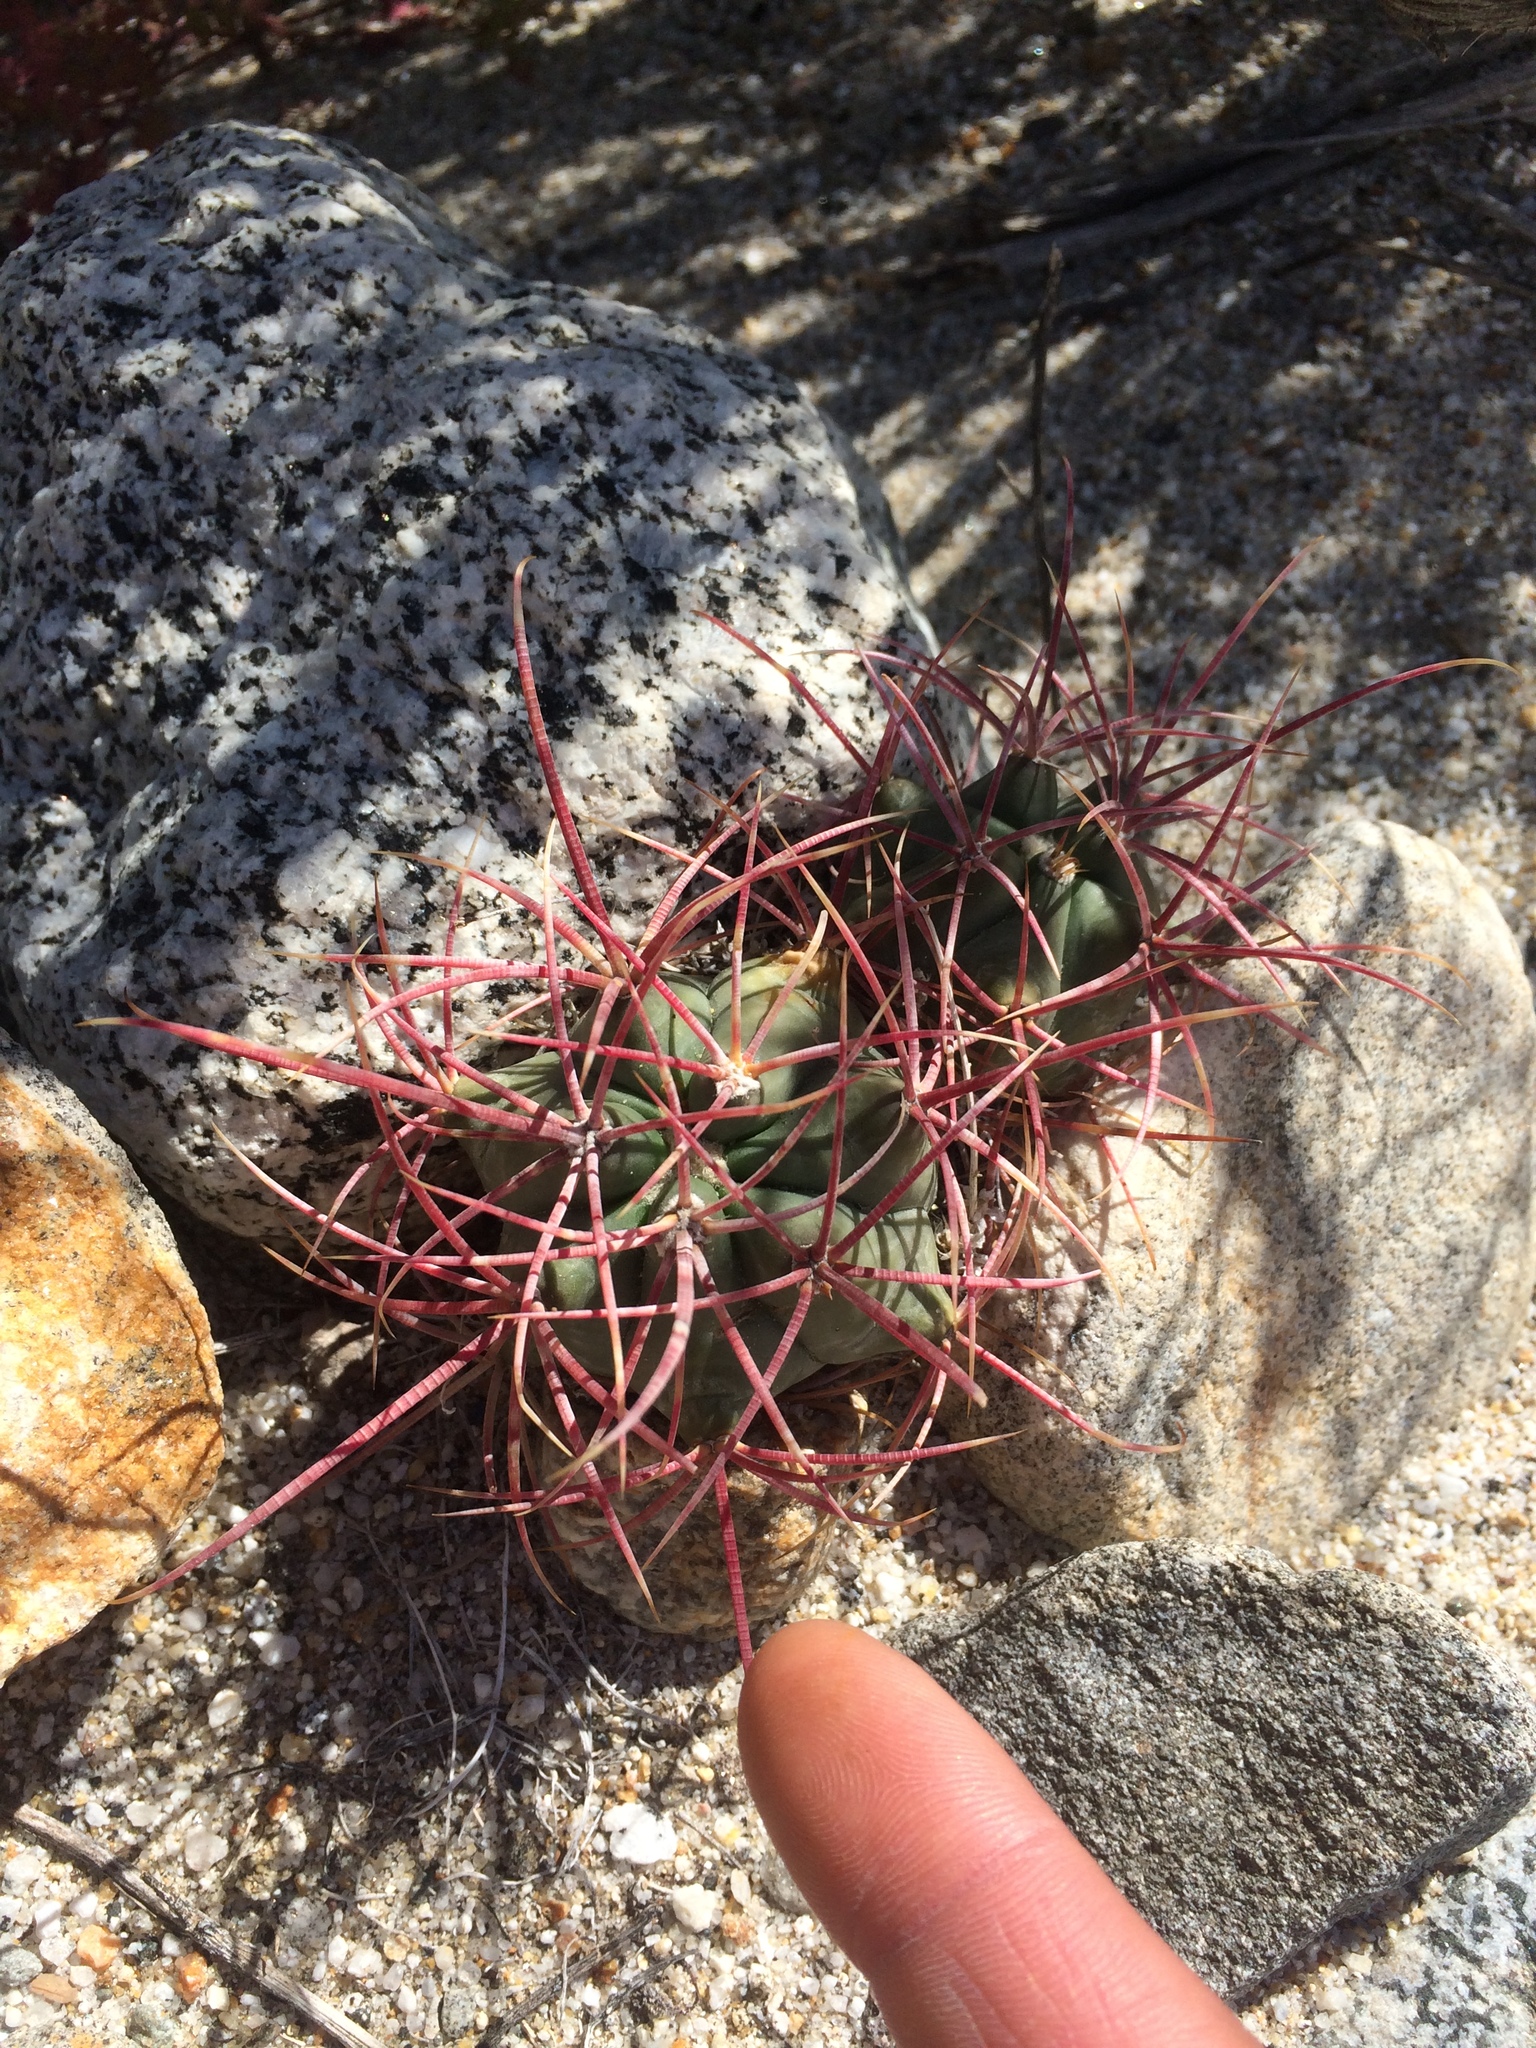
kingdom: Plantae
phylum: Tracheophyta
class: Magnoliopsida
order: Caryophyllales
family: Cactaceae
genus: Ferocactus
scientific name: Ferocactus cylindraceus
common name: California barrel cactus
